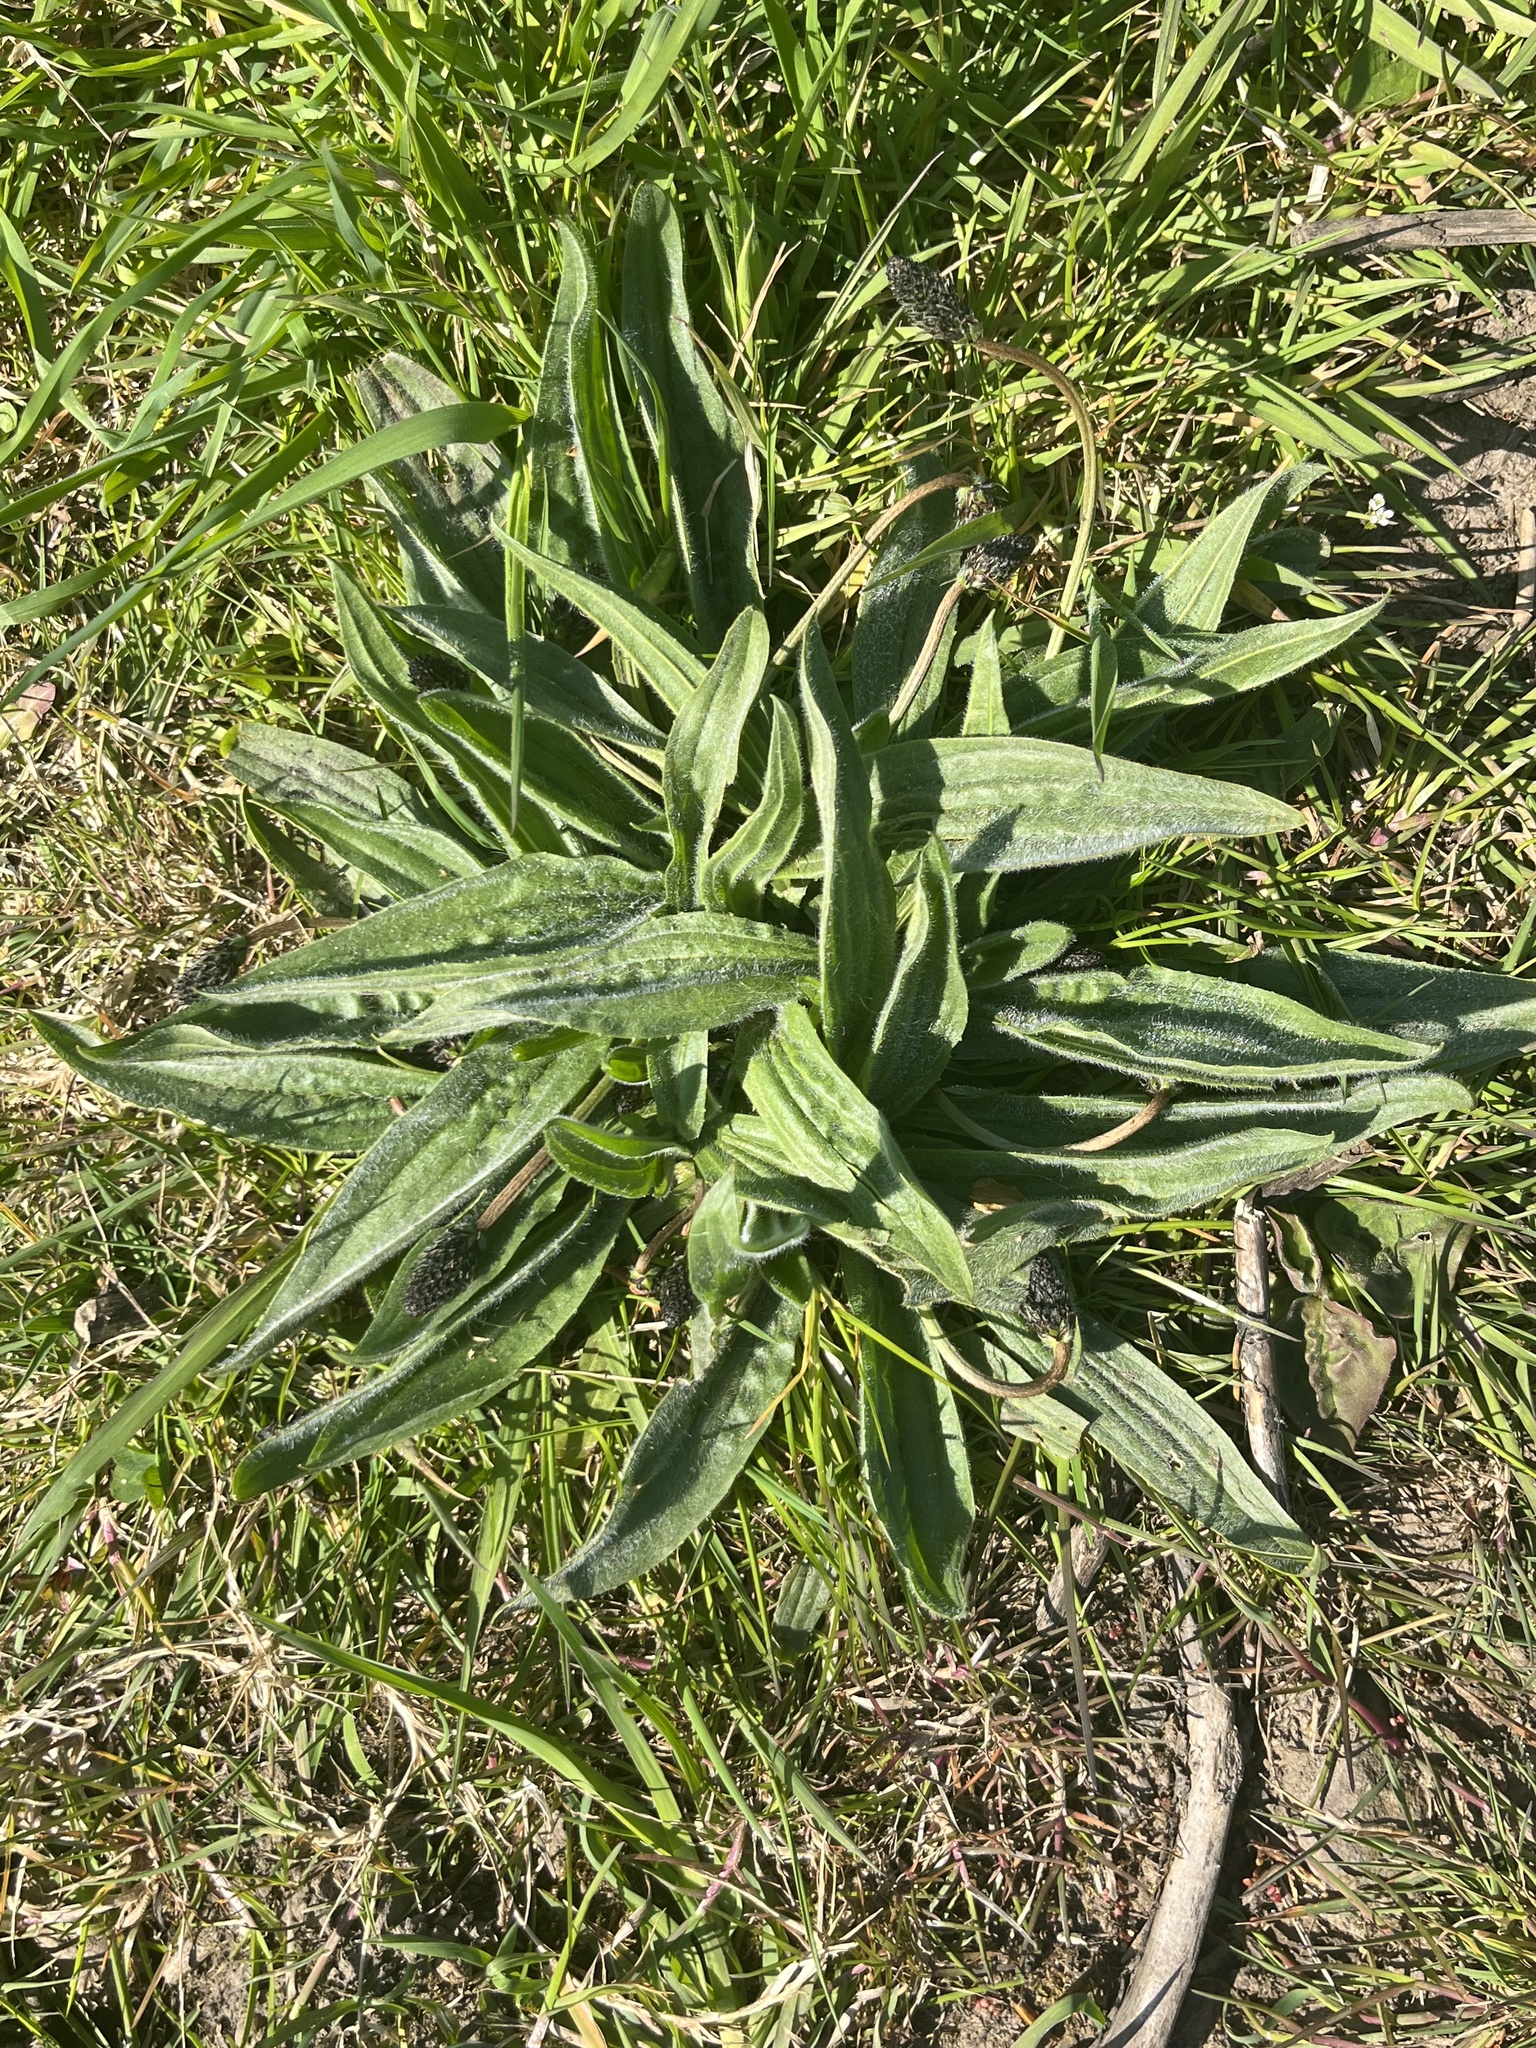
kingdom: Plantae
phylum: Tracheophyta
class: Magnoliopsida
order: Lamiales
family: Plantaginaceae
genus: Plantago
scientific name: Plantago lanceolata
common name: Ribwort plantain
